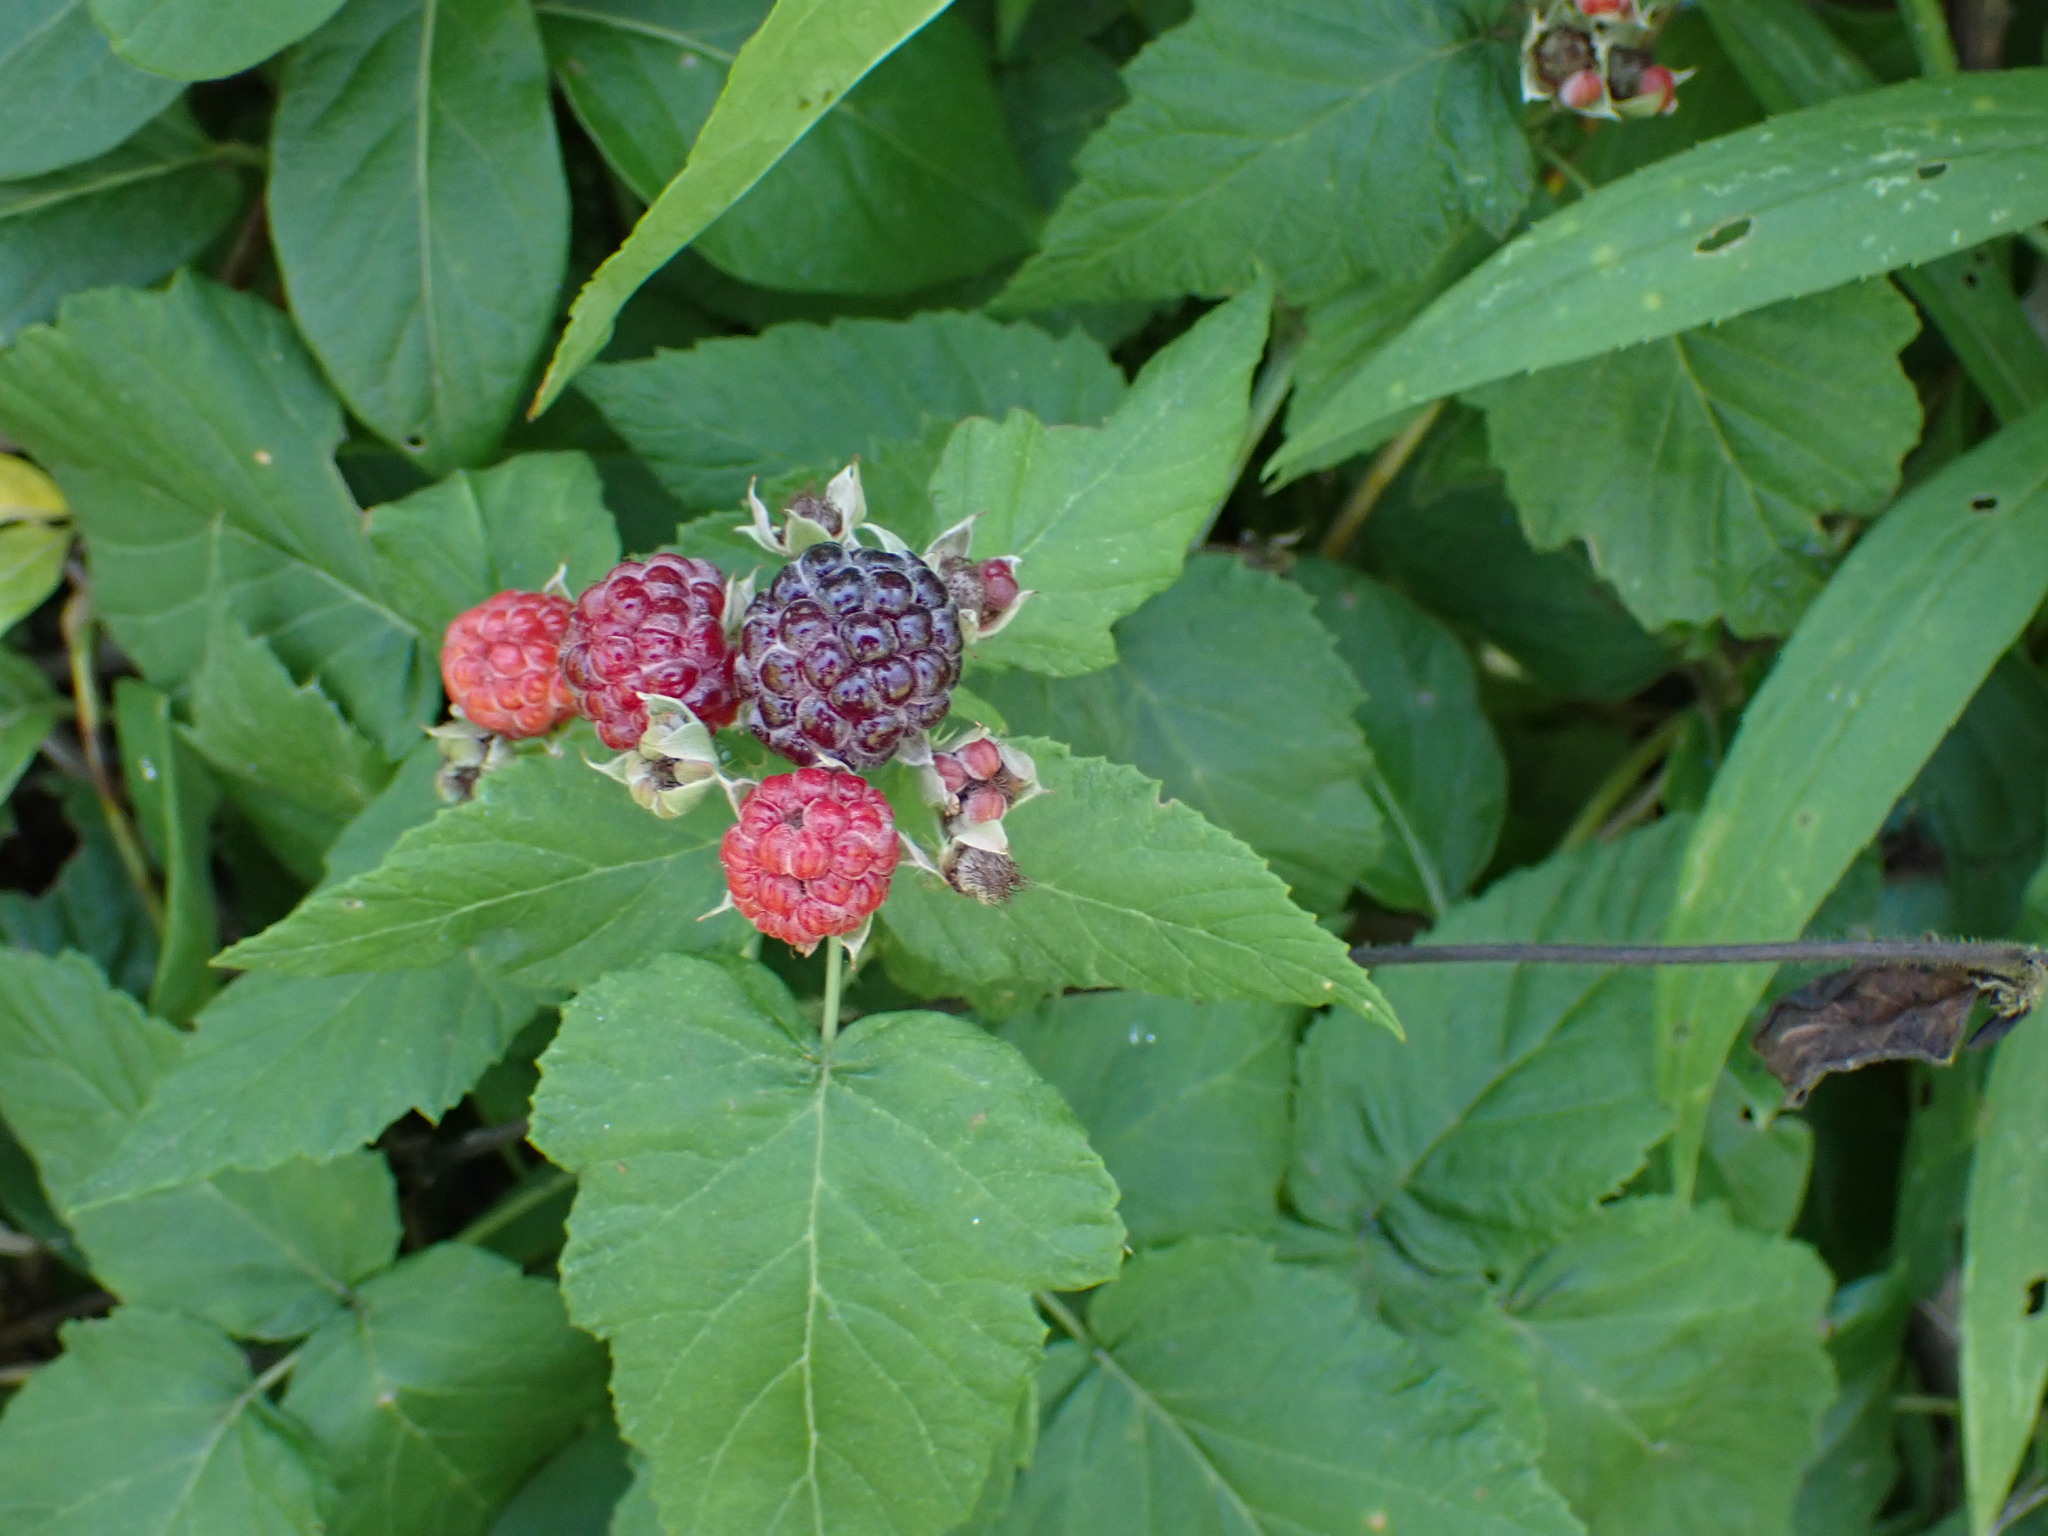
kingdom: Plantae
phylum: Tracheophyta
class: Magnoliopsida
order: Rosales
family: Rosaceae
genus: Rubus
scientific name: Rubus occidentalis
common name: Black raspberry
